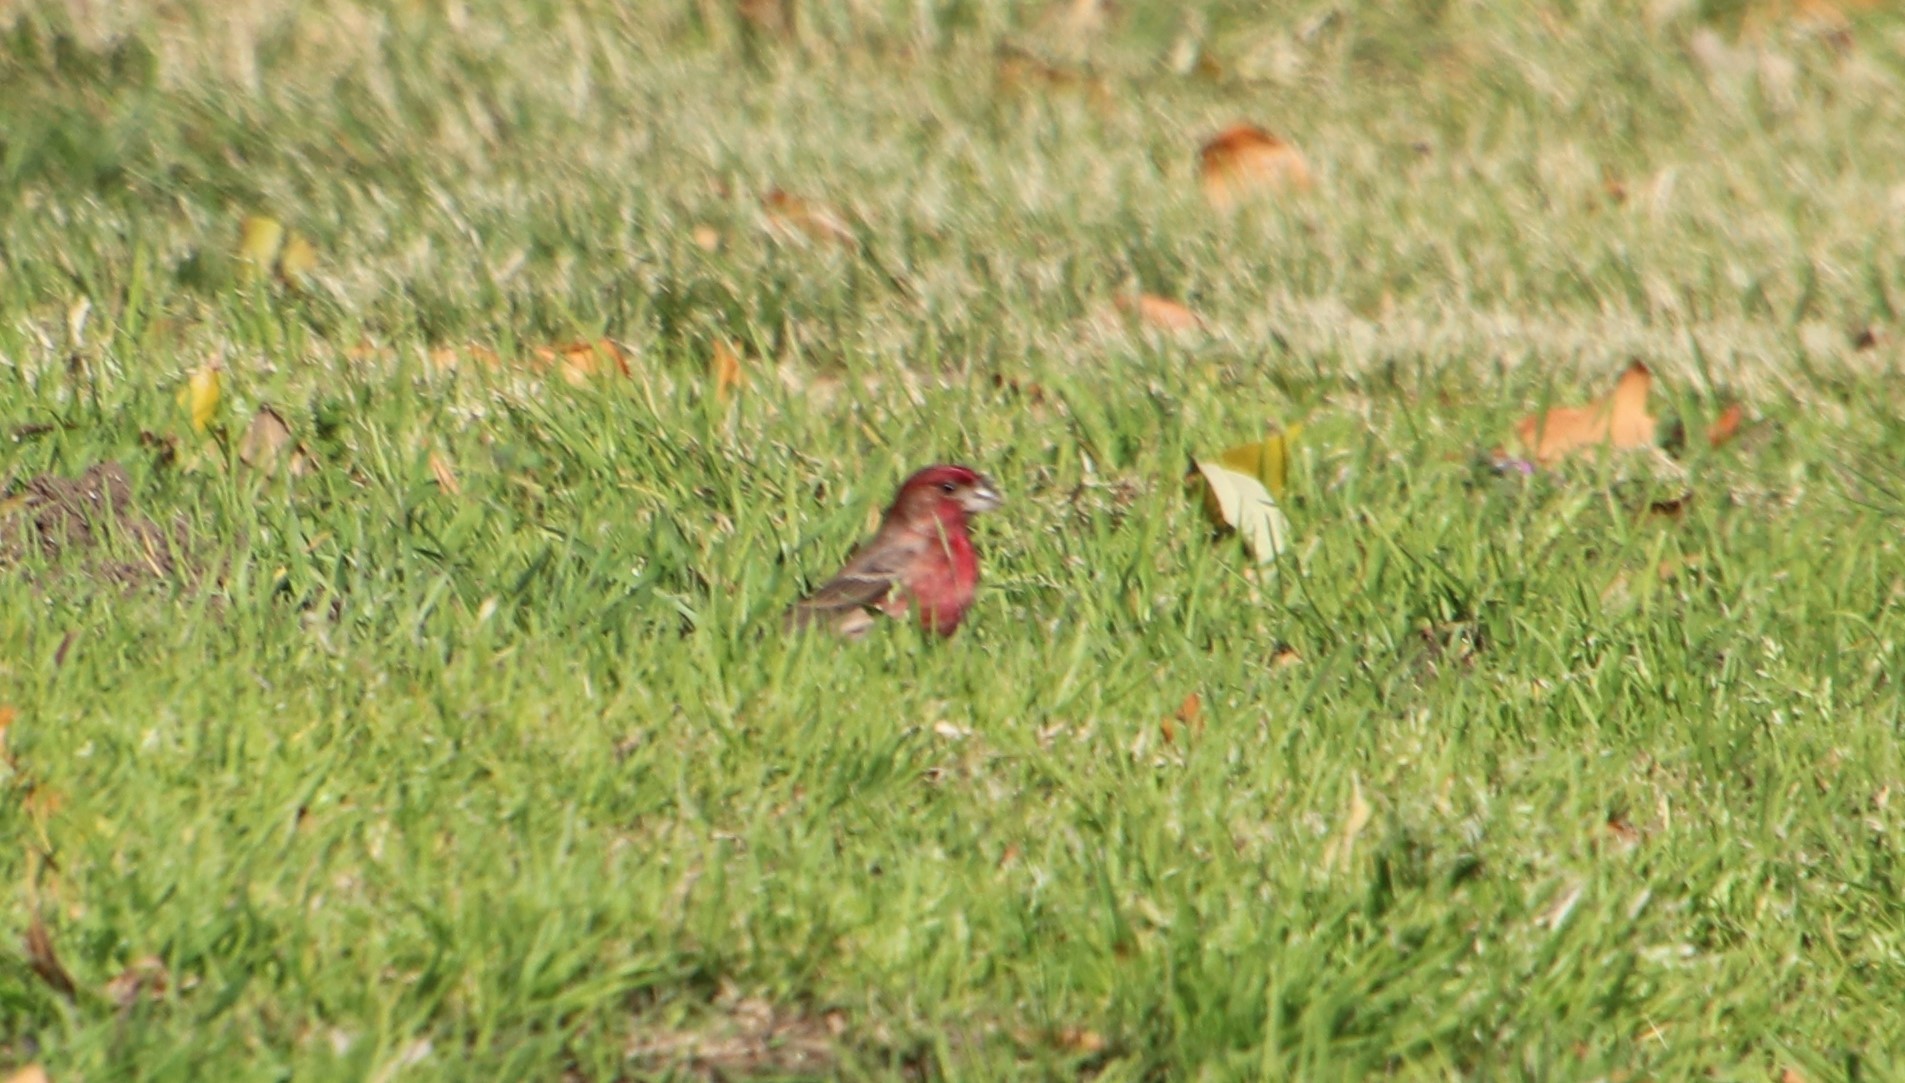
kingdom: Animalia
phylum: Chordata
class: Aves
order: Passeriformes
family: Fringillidae
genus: Haemorhous
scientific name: Haemorhous mexicanus
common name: House finch
